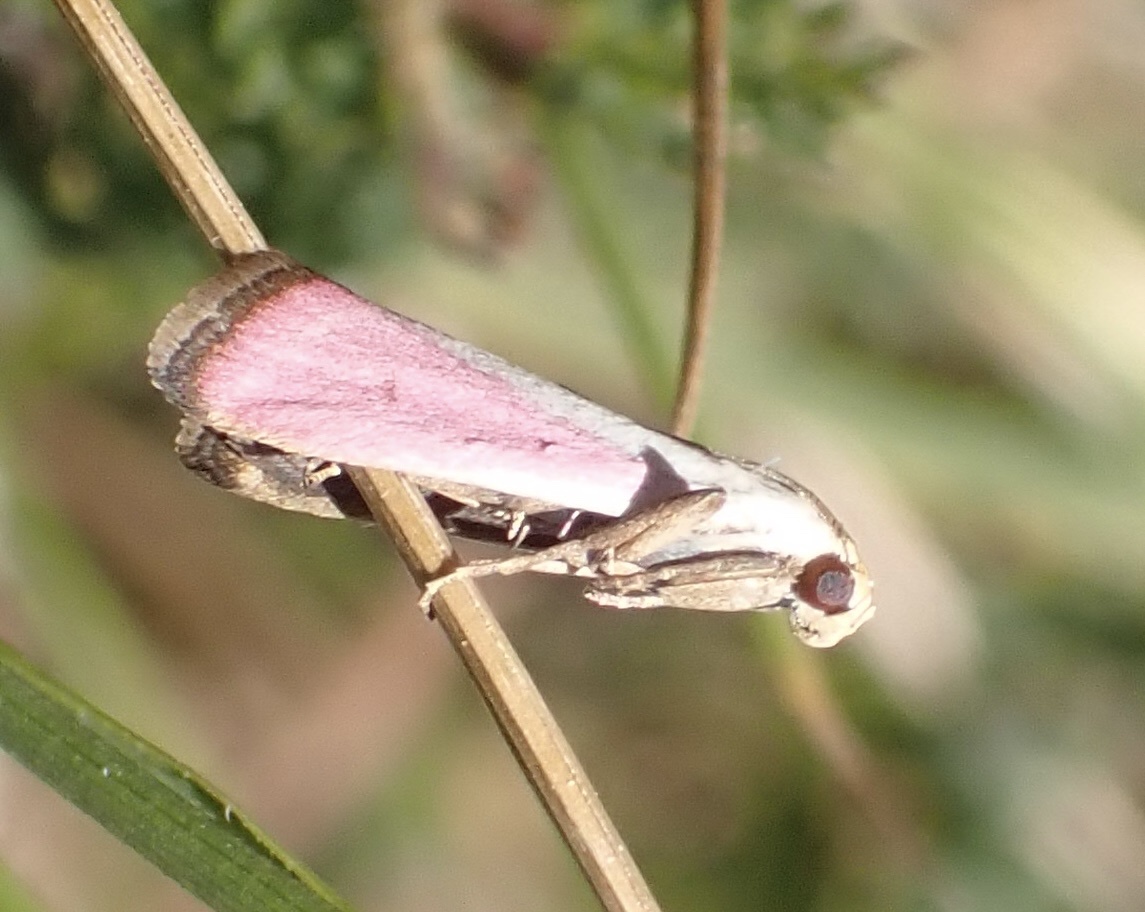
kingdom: Animalia
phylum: Arthropoda
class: Insecta
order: Lepidoptera
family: Pyralidae
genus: Eurhodope
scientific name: Eurhodope rosella
